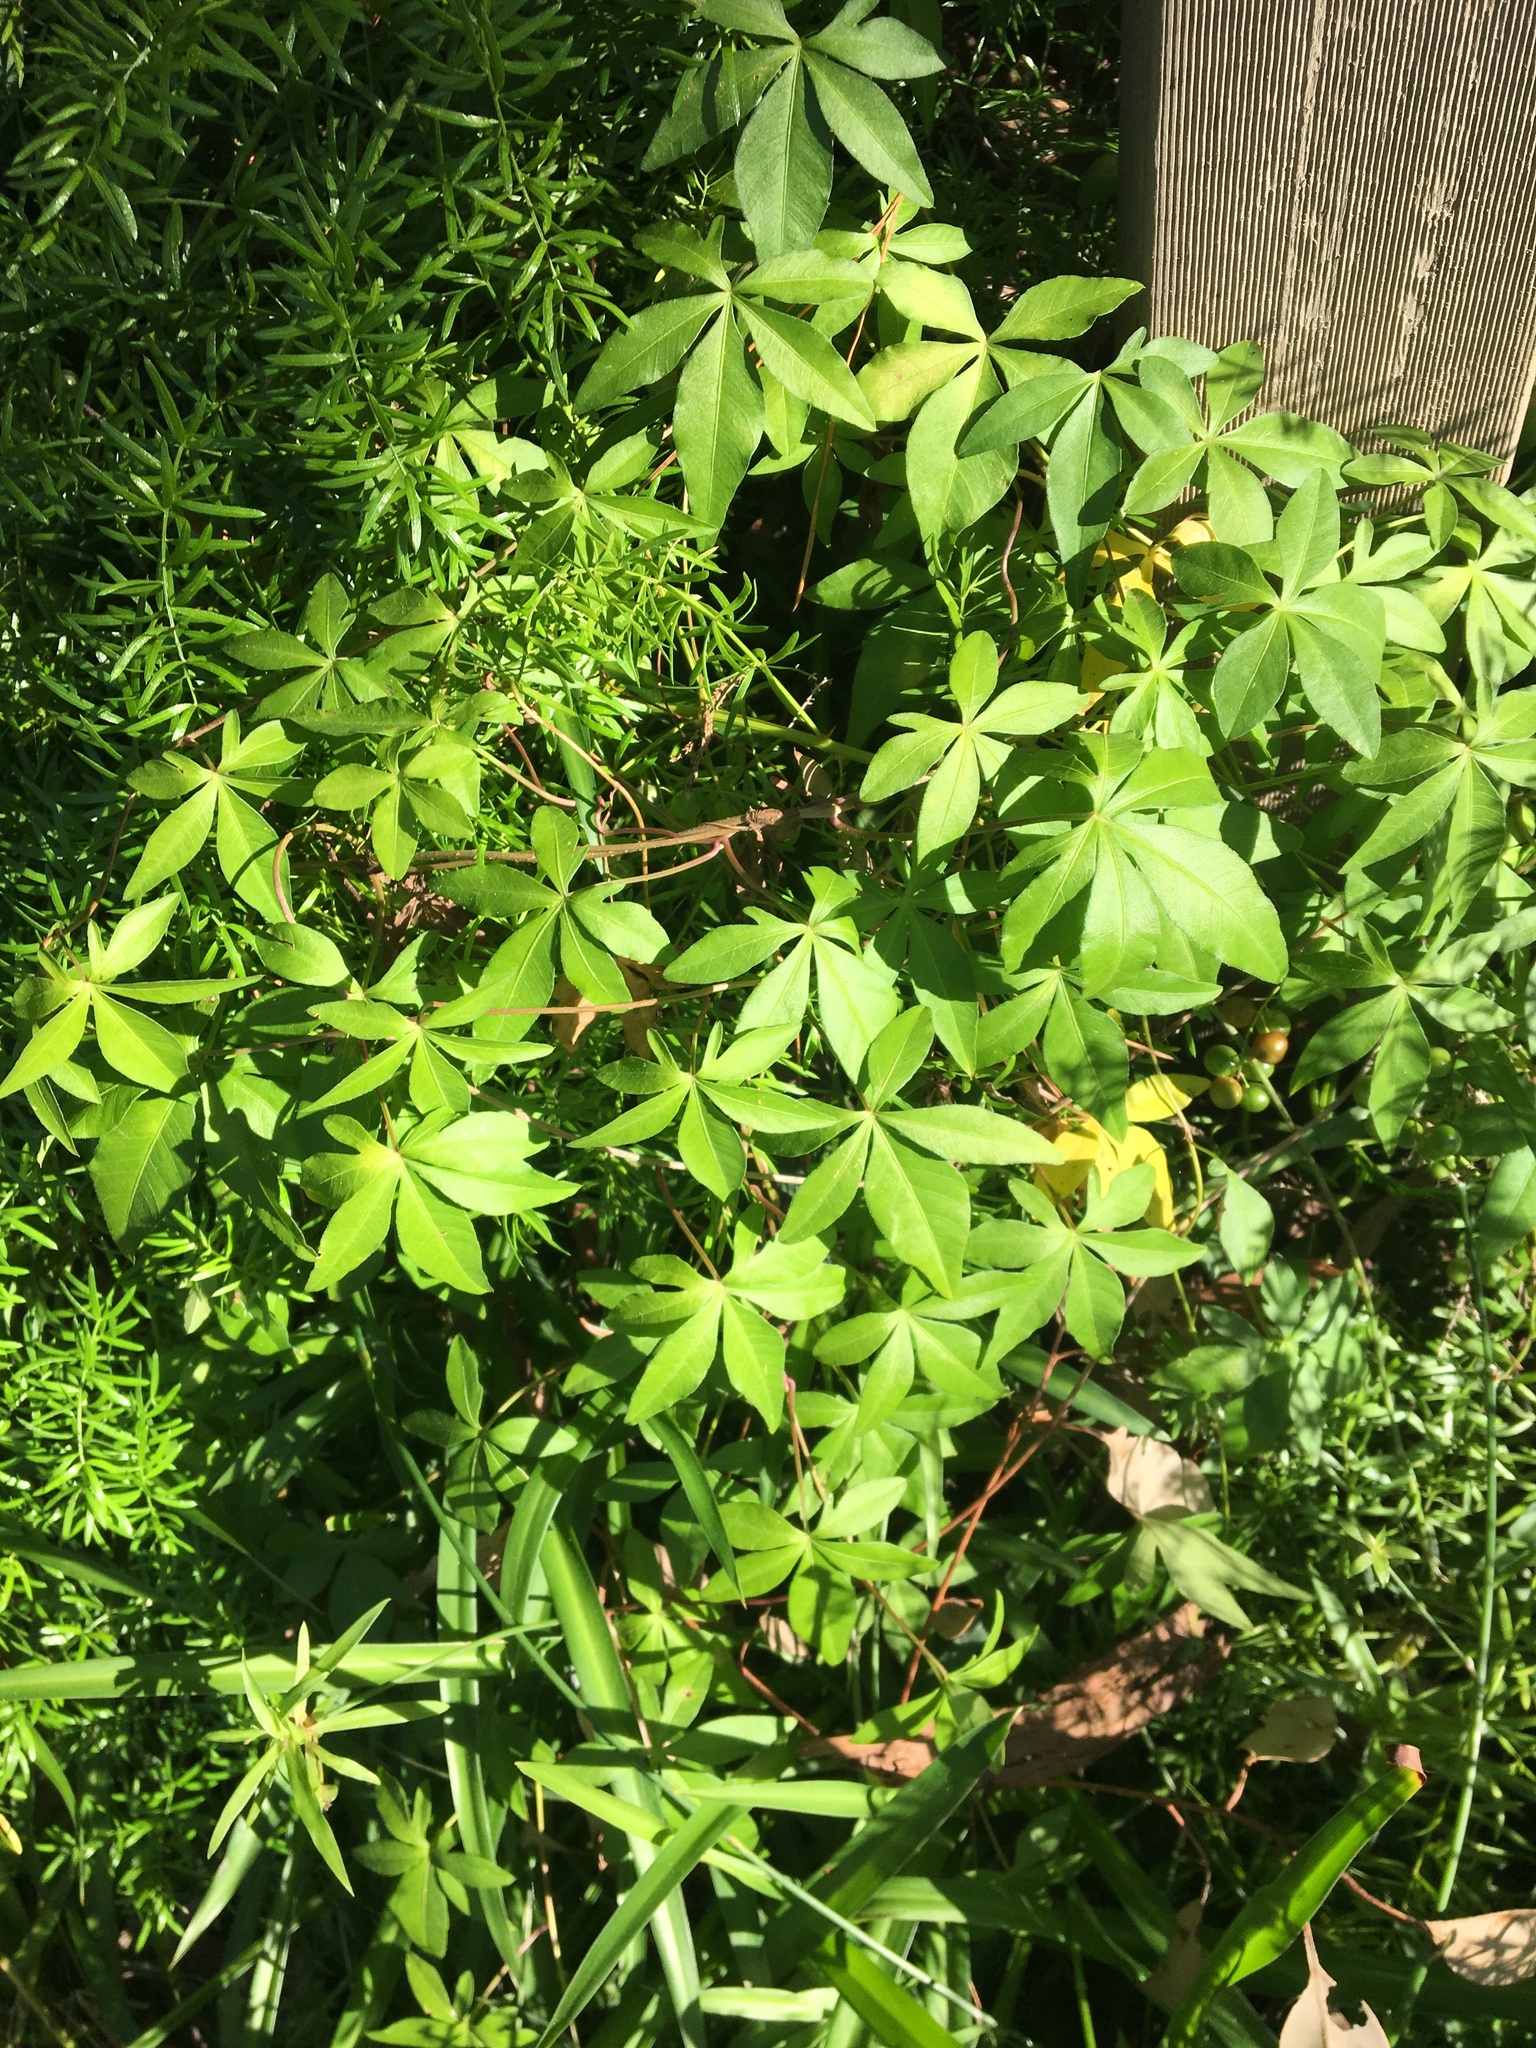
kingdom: Plantae
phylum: Tracheophyta
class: Magnoliopsida
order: Solanales
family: Convolvulaceae
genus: Ipomoea
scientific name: Ipomoea cairica
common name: Mile a minute vine
